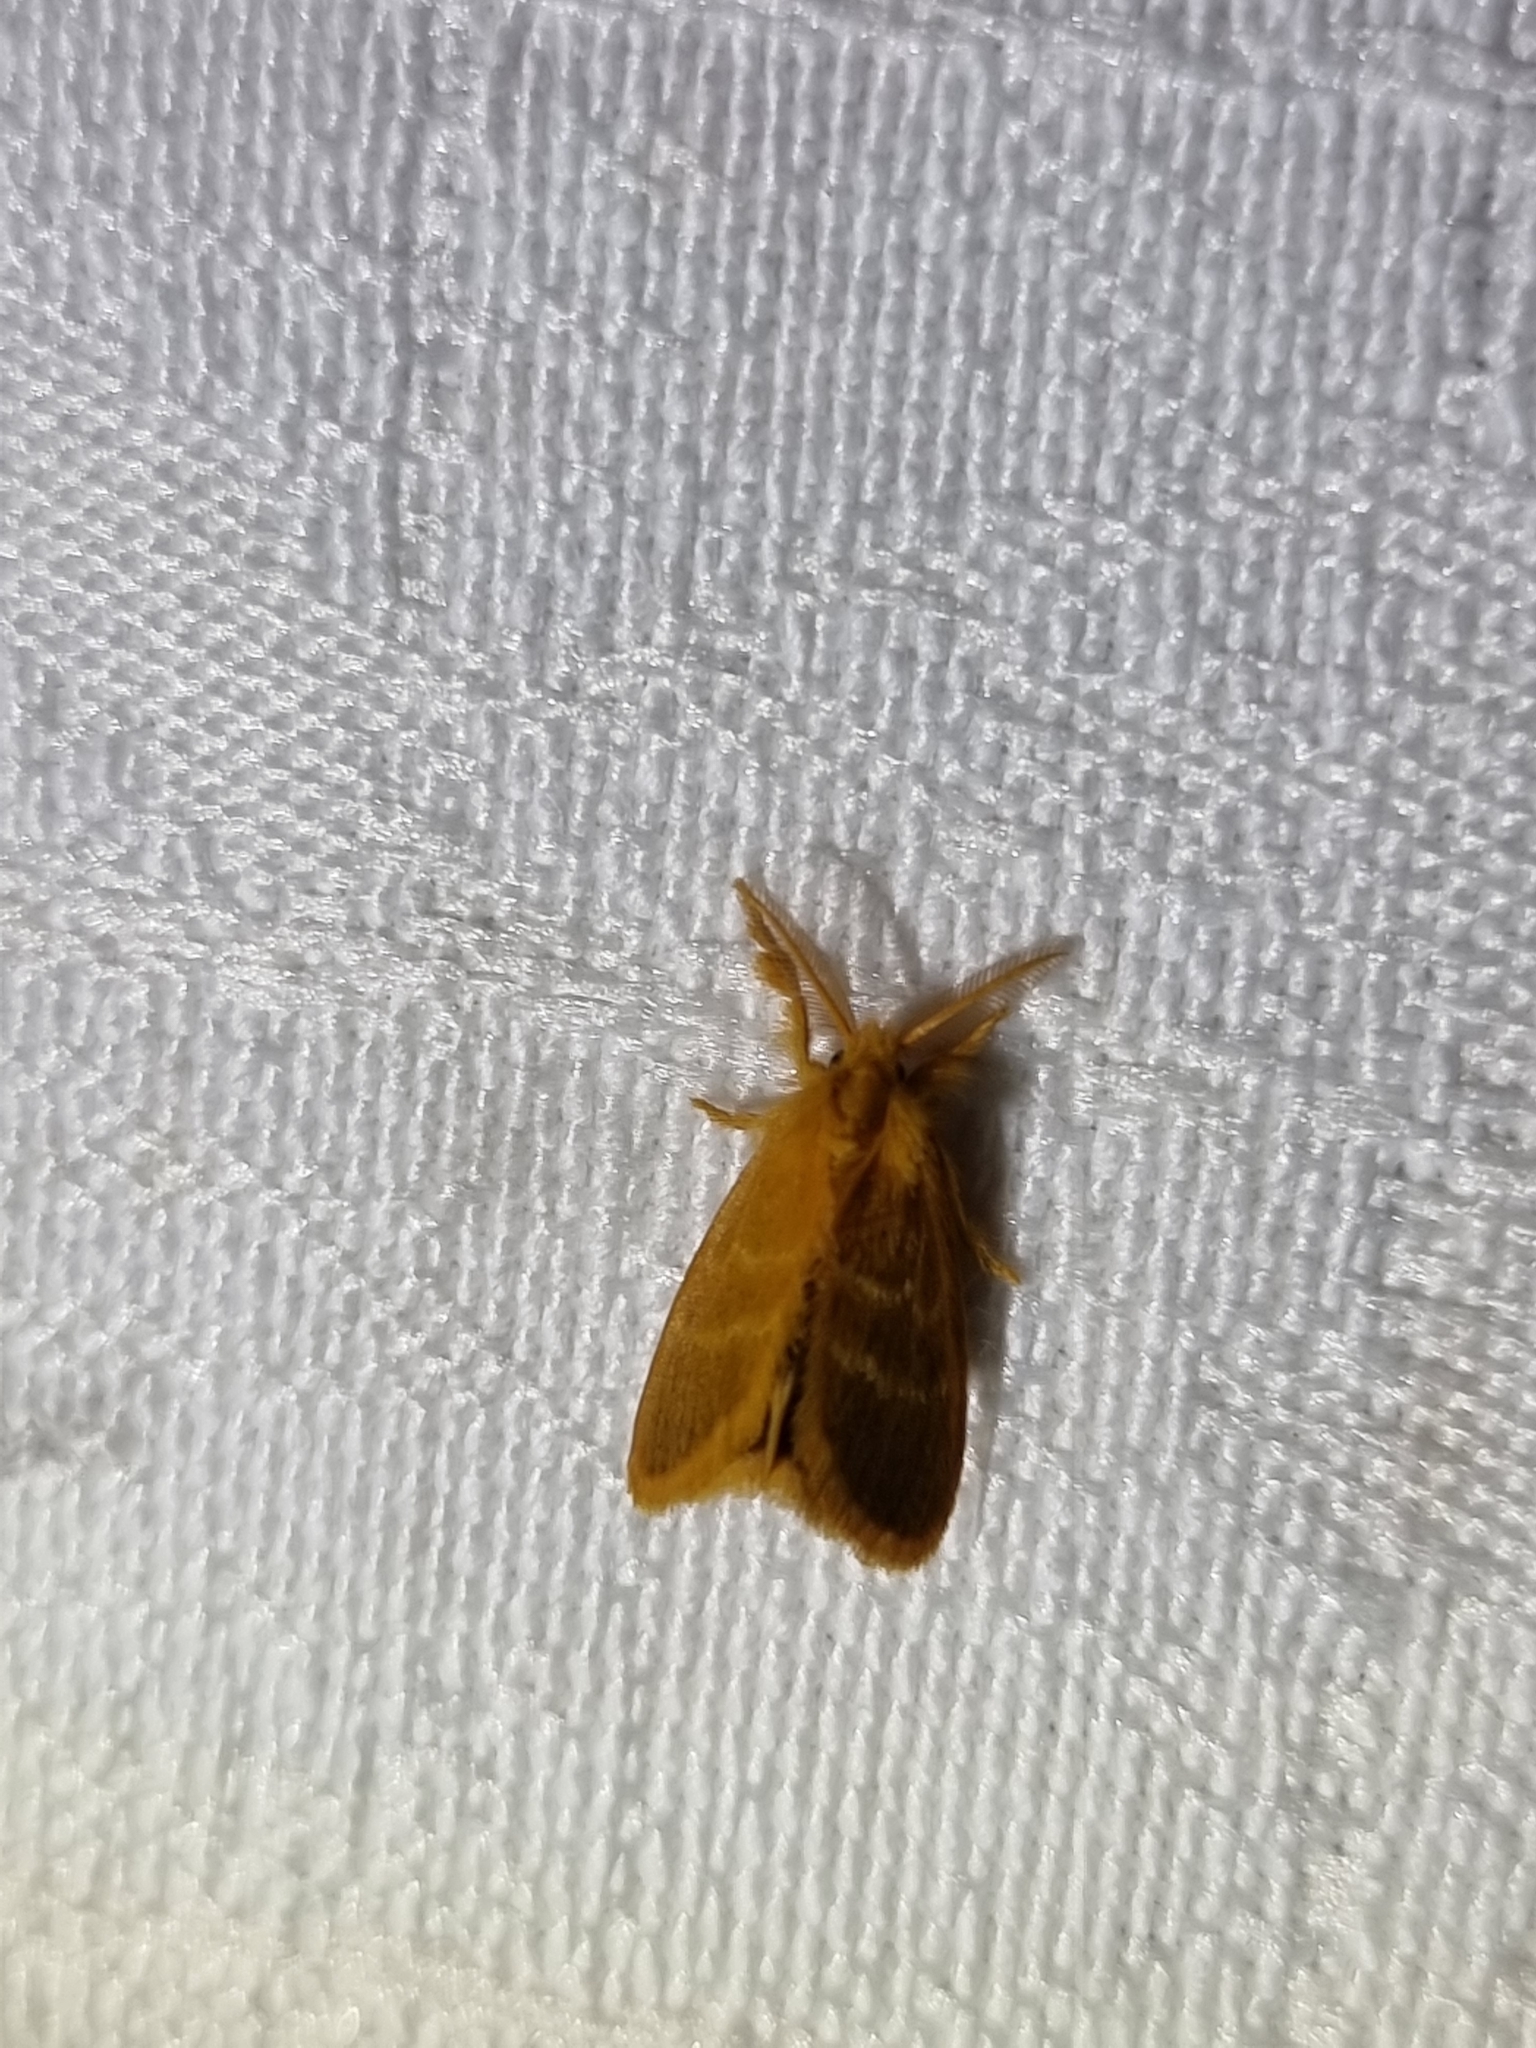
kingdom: Animalia
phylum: Arthropoda
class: Insecta
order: Lepidoptera
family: Erebidae
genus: Euproctis
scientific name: Euproctis lucifuga
